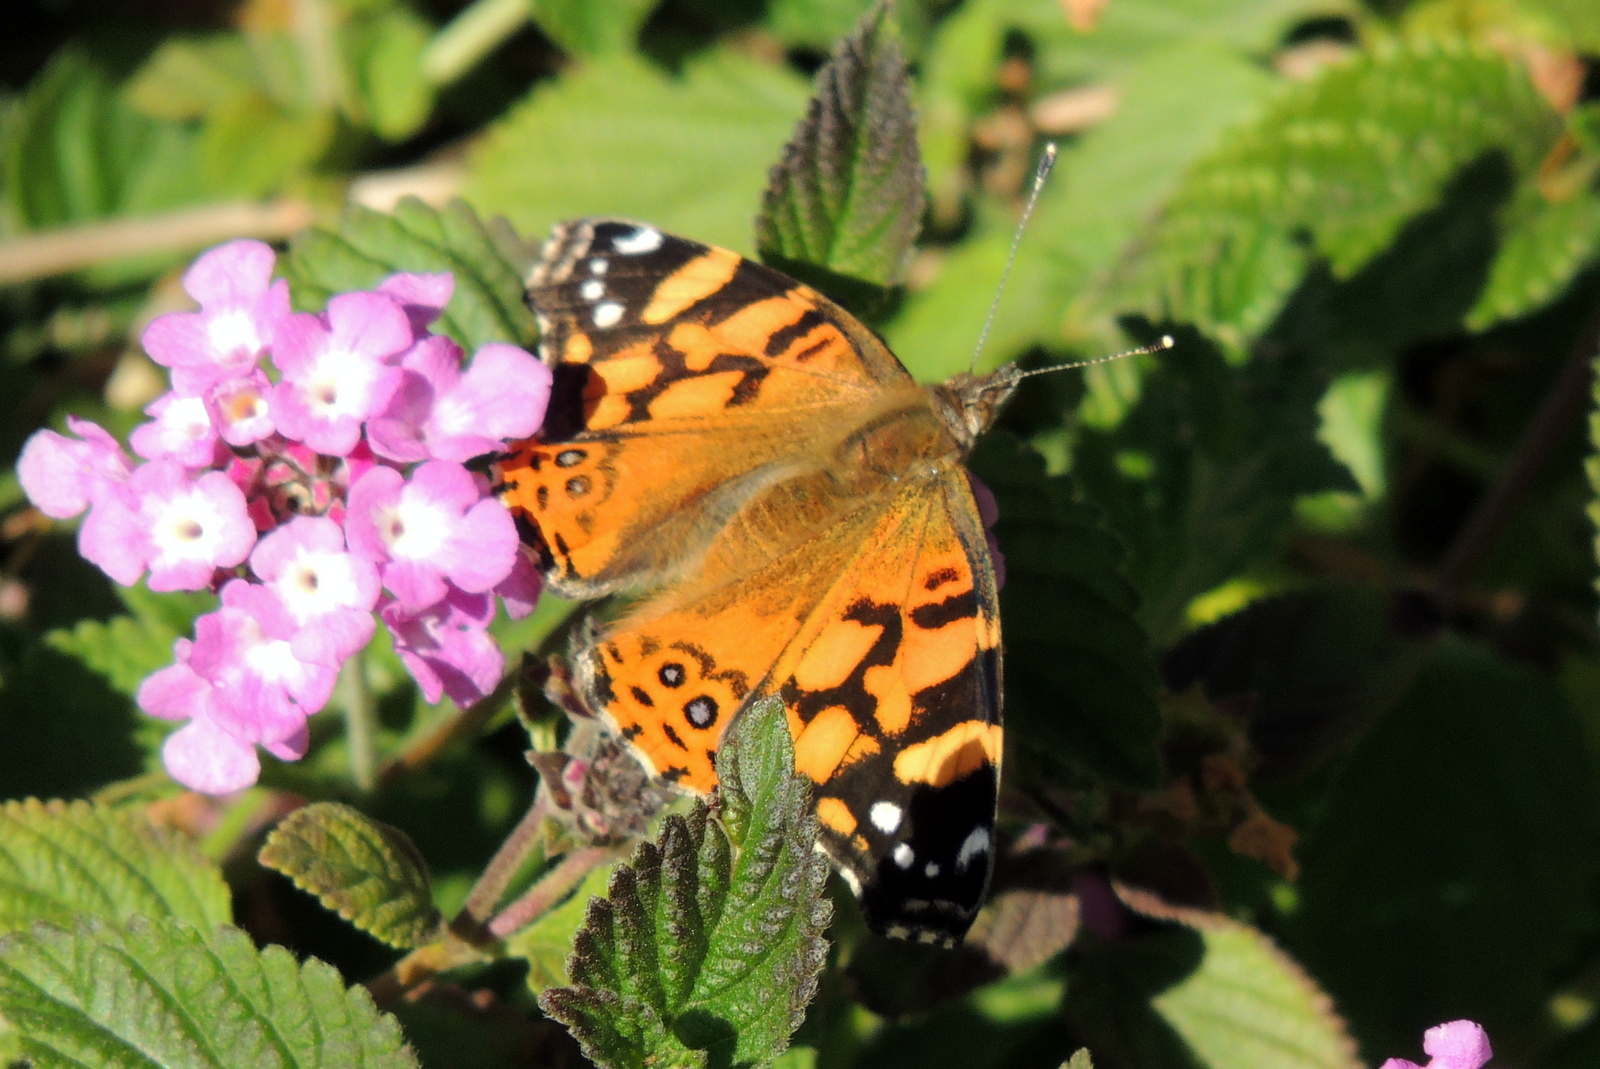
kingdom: Animalia
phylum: Arthropoda
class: Insecta
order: Lepidoptera
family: Nymphalidae
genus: Vanessa
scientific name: Vanessa annabella
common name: West coast lady
